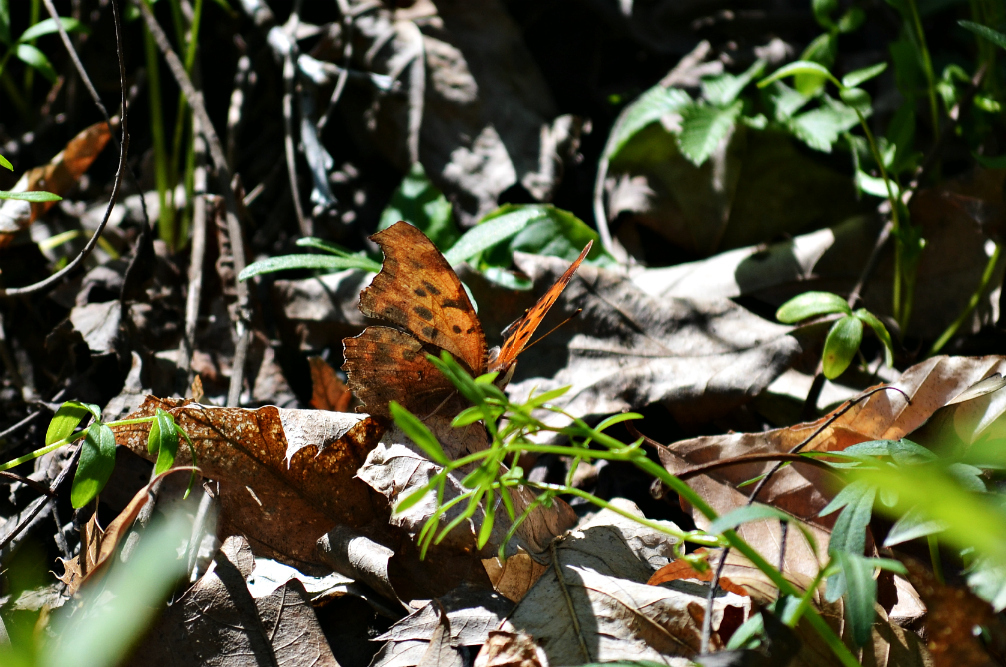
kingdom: Animalia
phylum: Arthropoda
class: Insecta
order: Lepidoptera
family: Nymphalidae
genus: Polygonia
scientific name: Polygonia interrogationis
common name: Question mark
